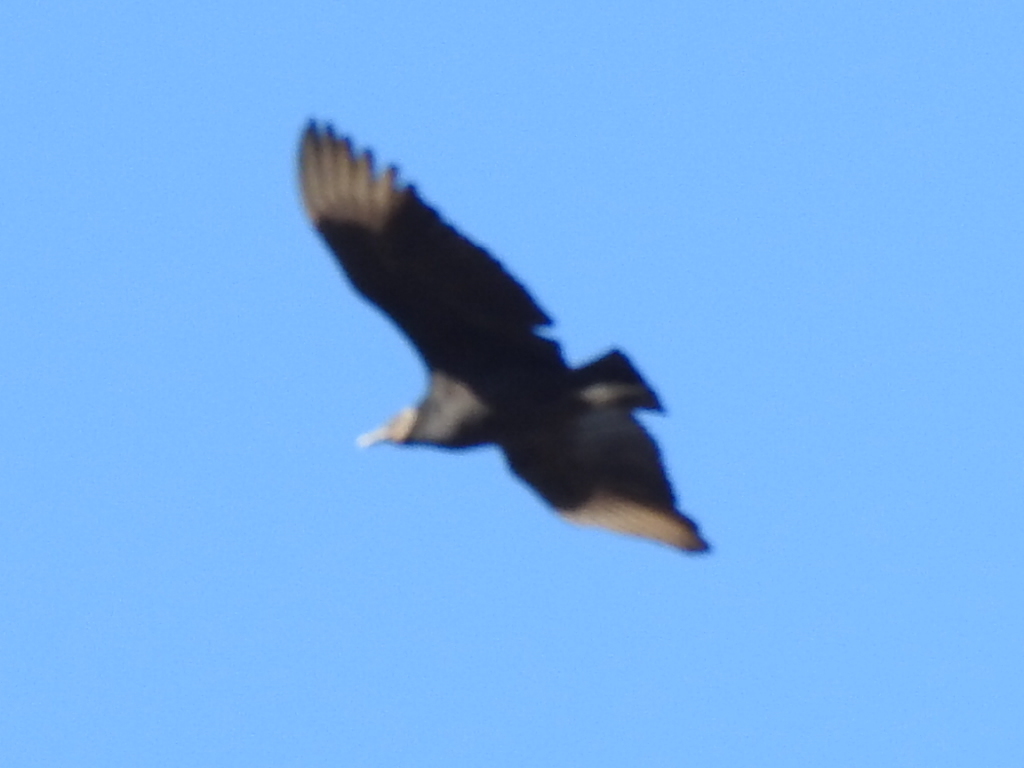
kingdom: Animalia
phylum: Chordata
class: Aves
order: Accipitriformes
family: Cathartidae
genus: Coragyps
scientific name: Coragyps atratus
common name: Black vulture
